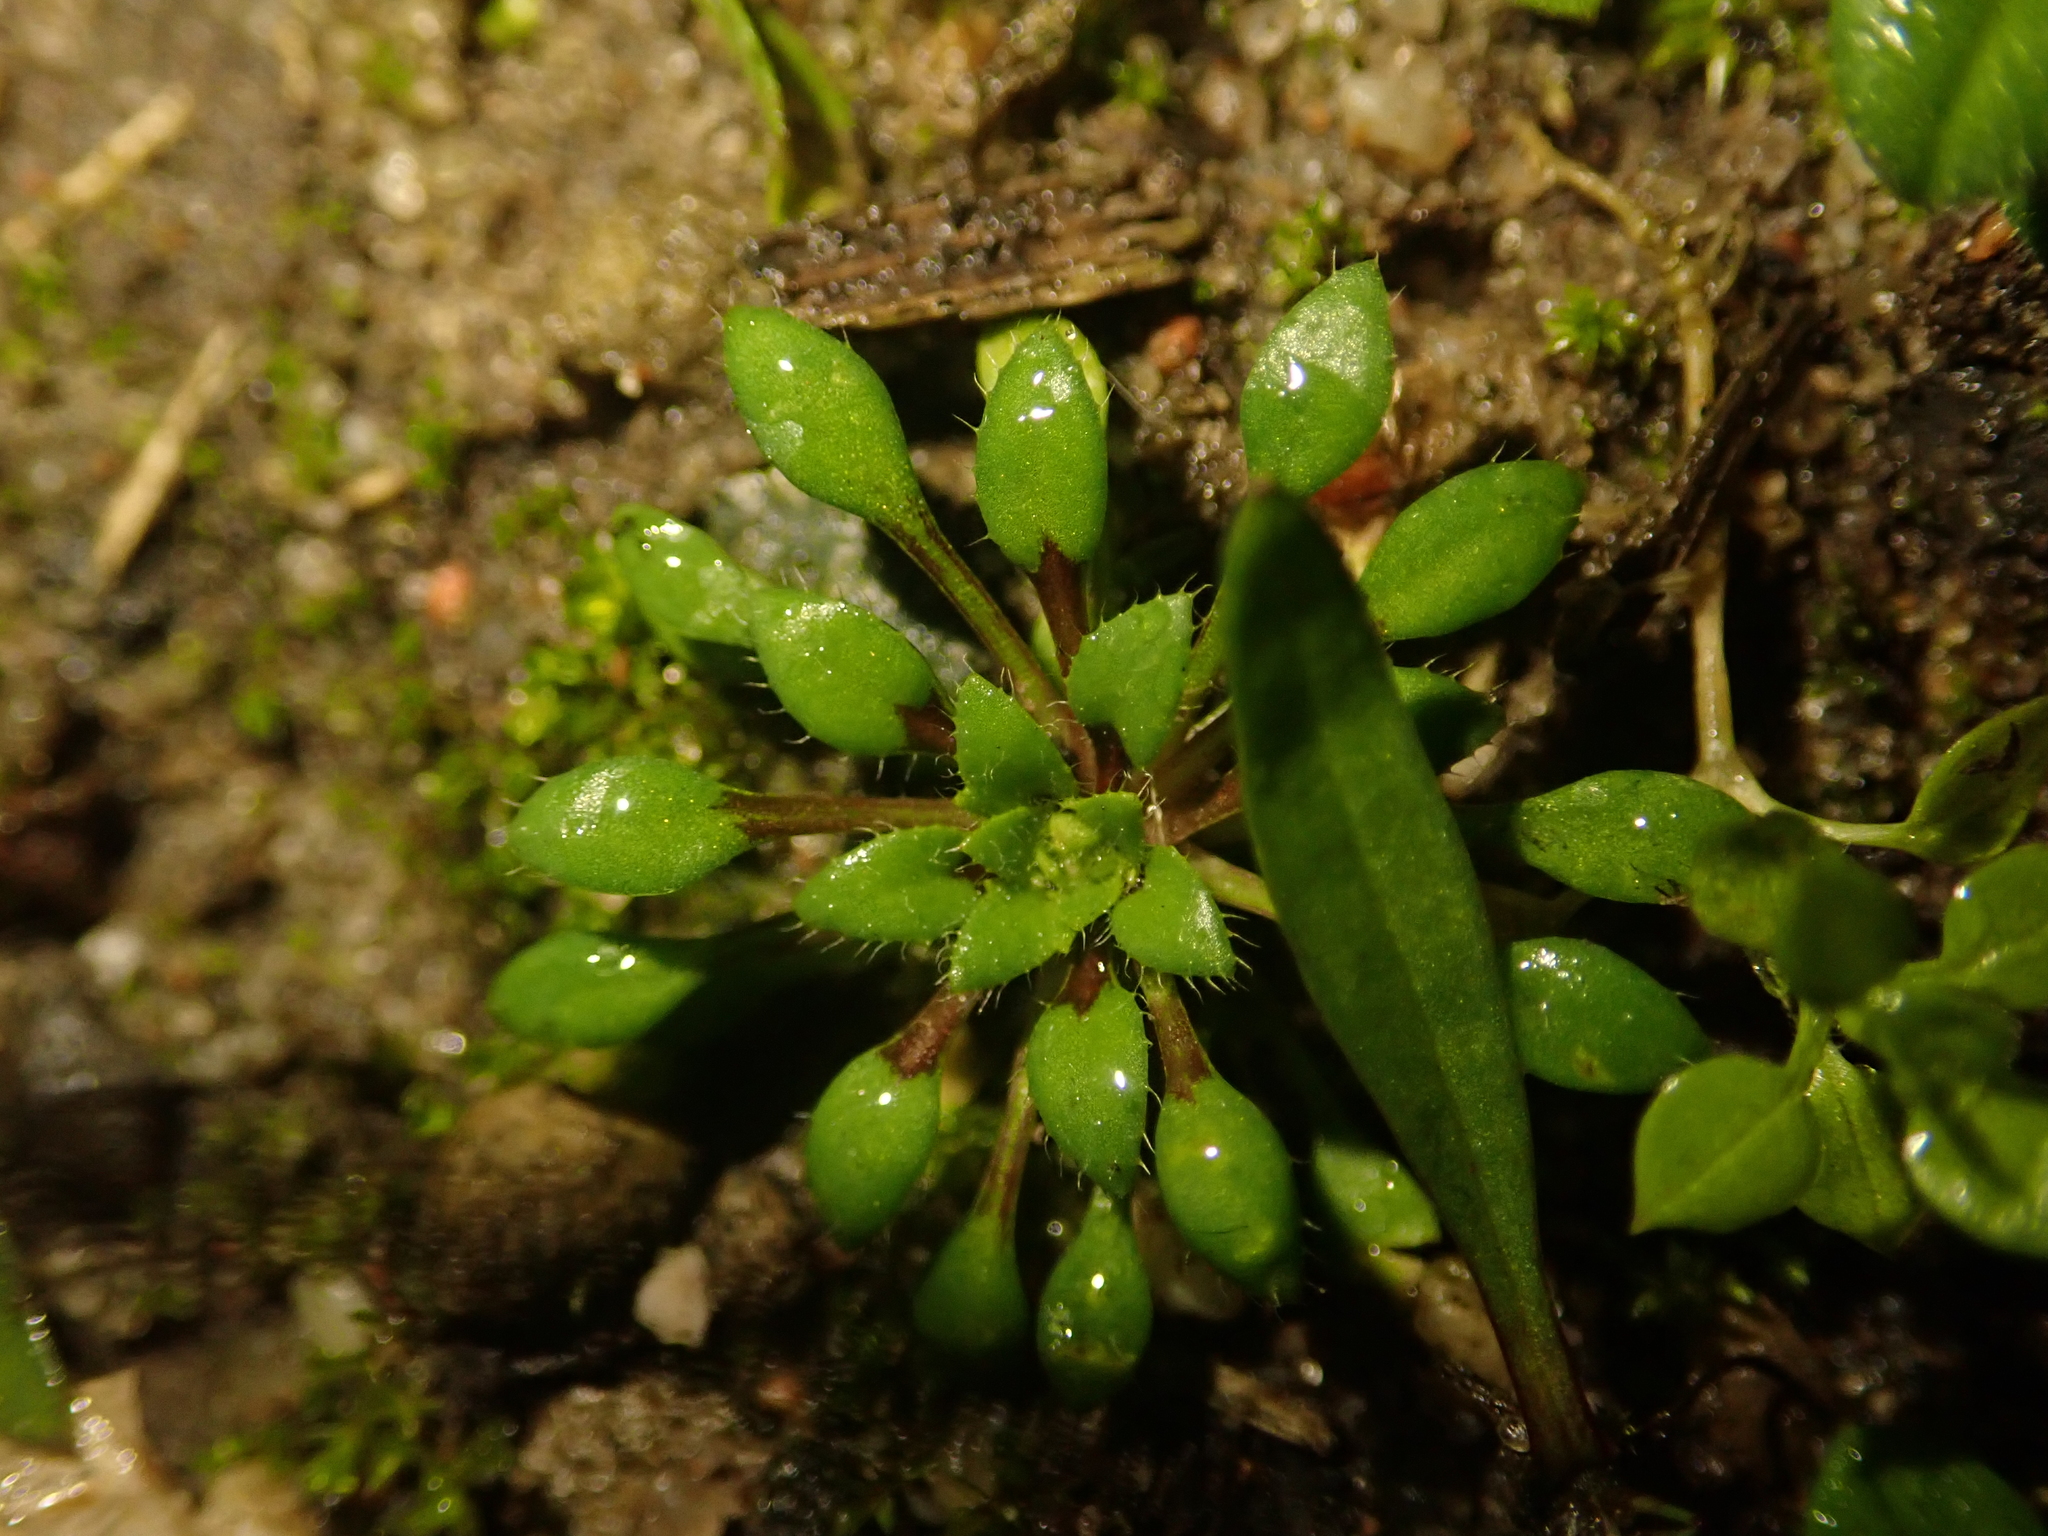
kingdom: Plantae
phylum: Tracheophyta
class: Magnoliopsida
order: Brassicales
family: Brassicaceae
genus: Draba
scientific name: Draba verna
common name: Spring draba
